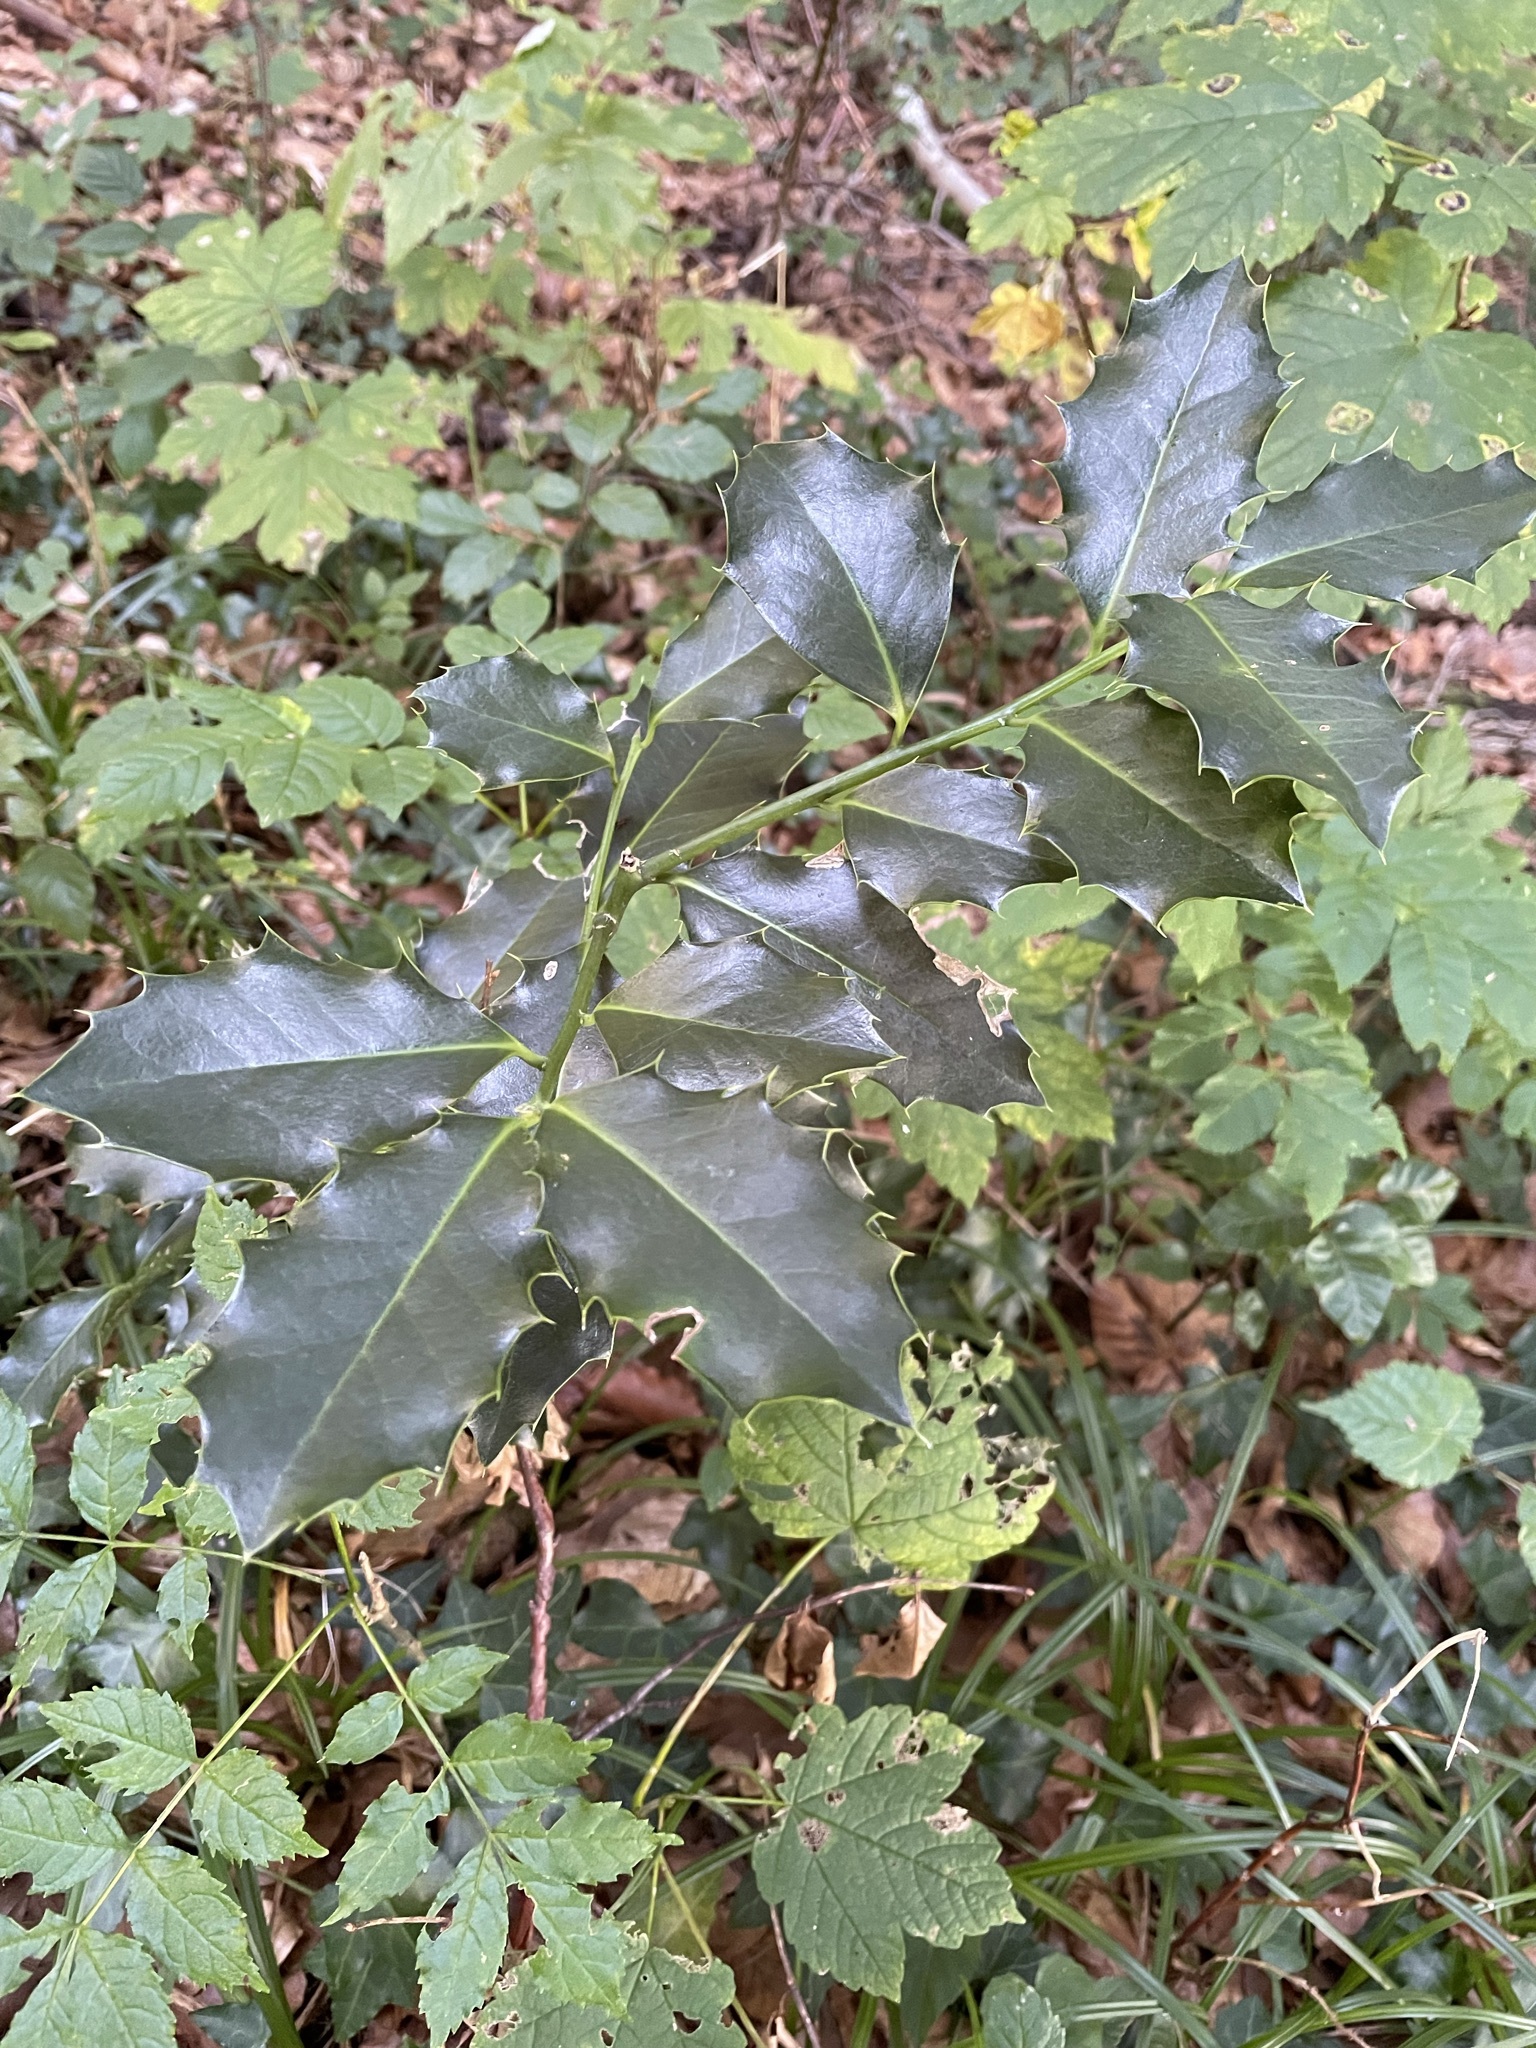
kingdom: Plantae
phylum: Tracheophyta
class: Magnoliopsida
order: Aquifoliales
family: Aquifoliaceae
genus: Ilex
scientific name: Ilex aquifolium
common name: English holly
